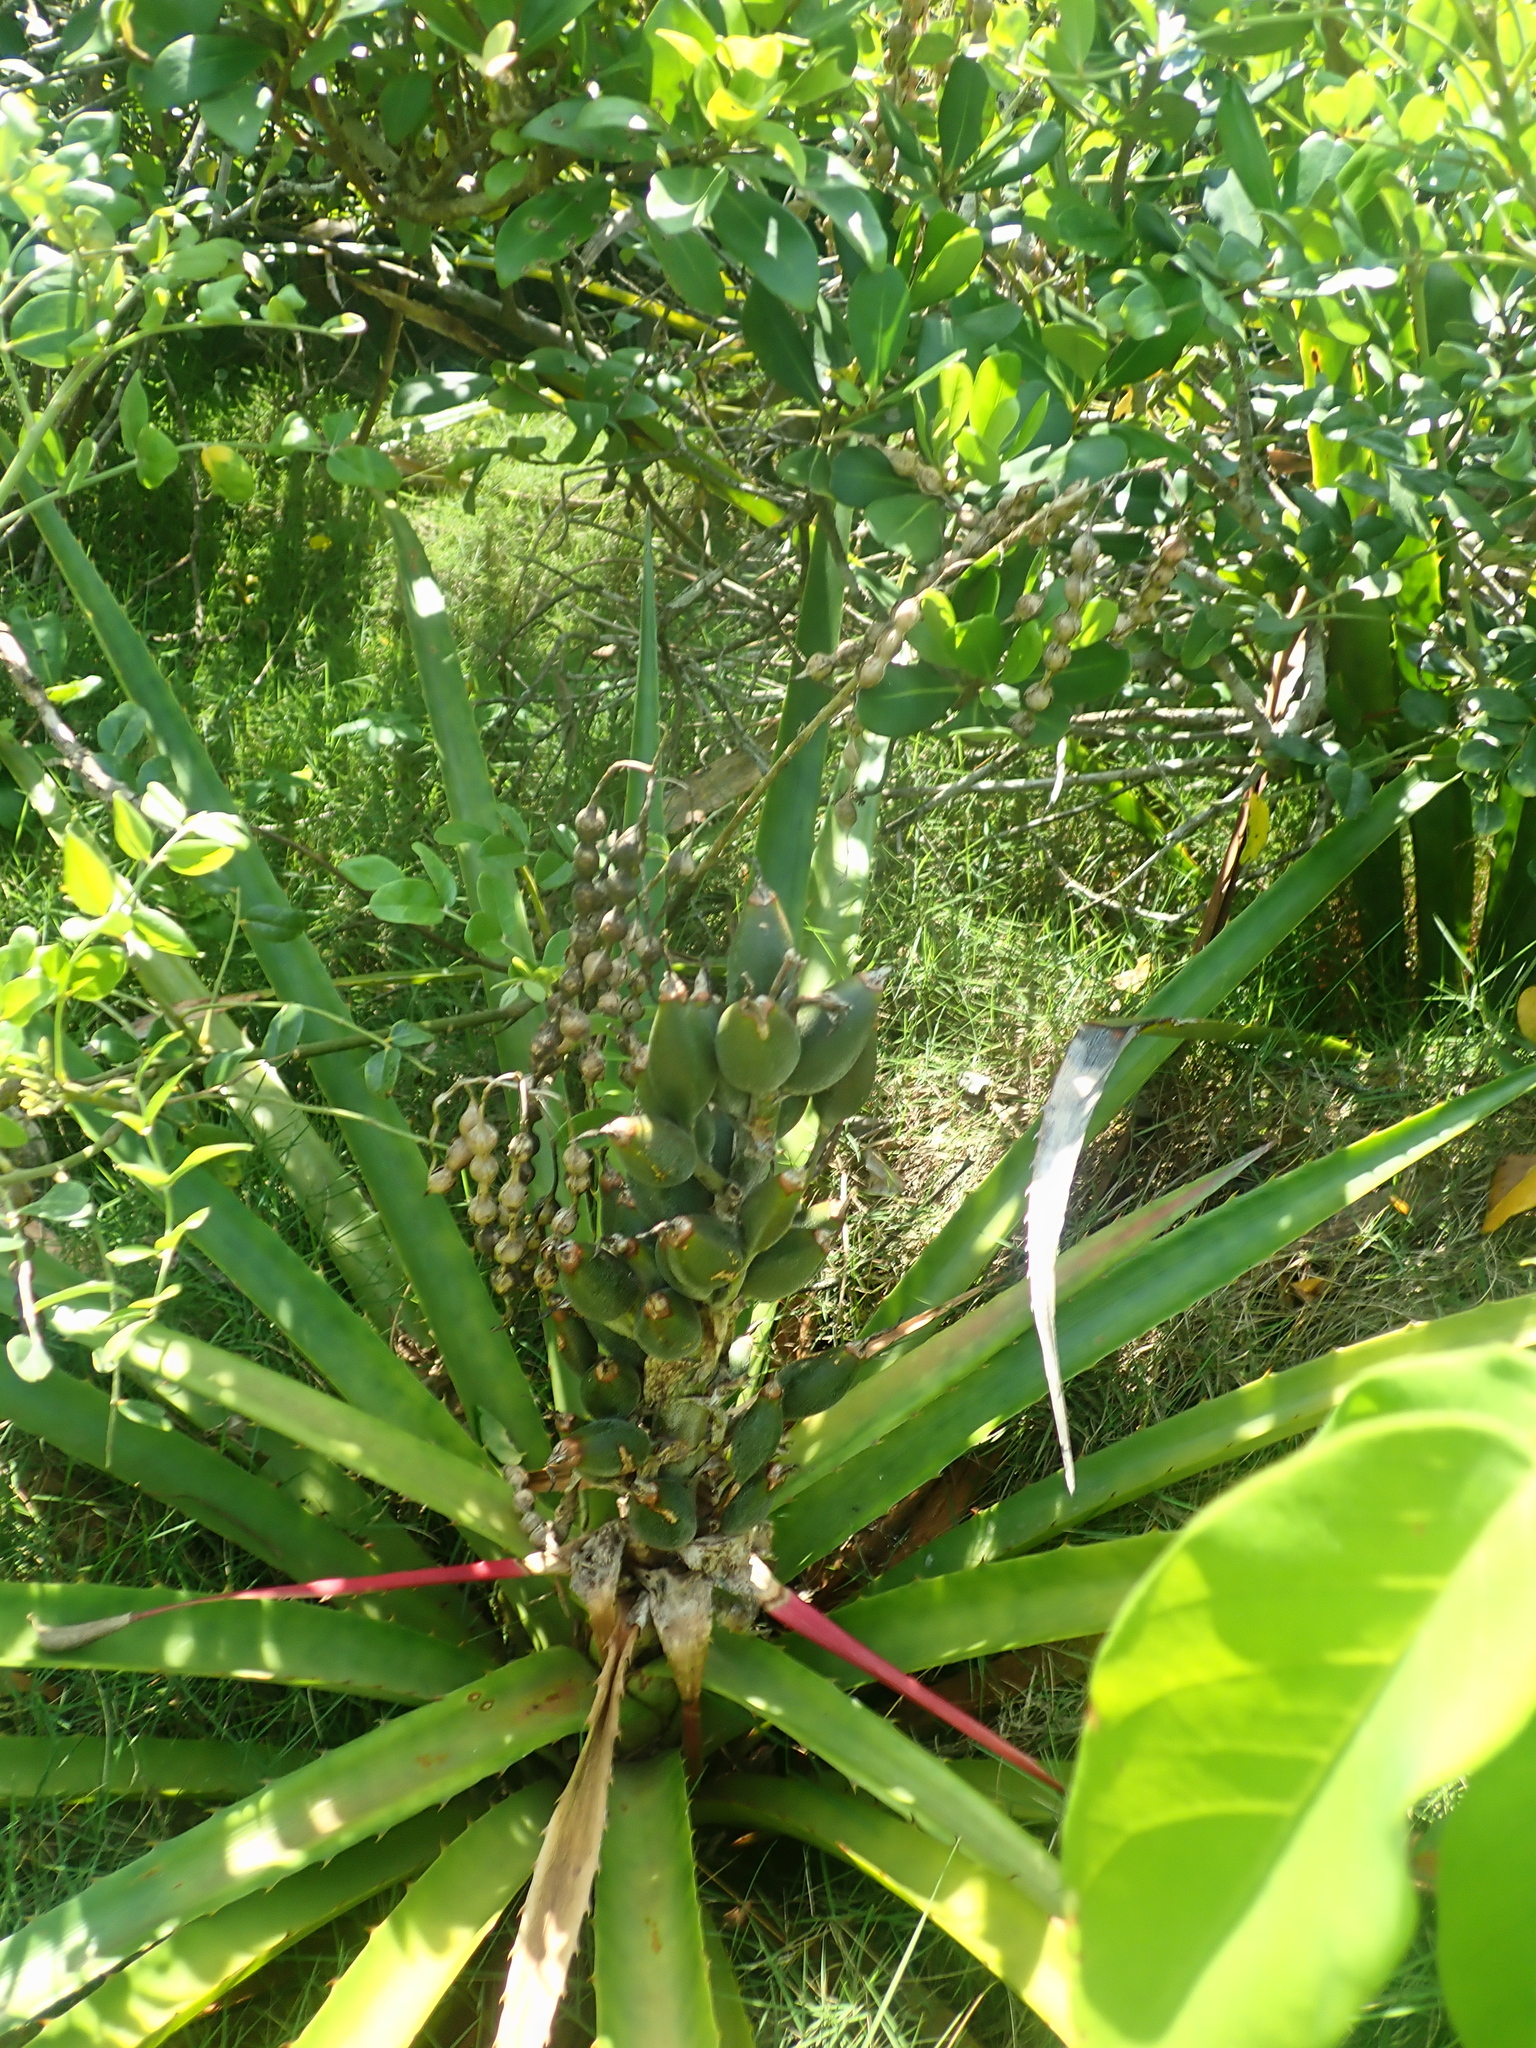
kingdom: Plantae
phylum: Tracheophyta
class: Liliopsida
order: Poales
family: Bromeliaceae
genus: Bromelia
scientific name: Bromelia antiacantha
